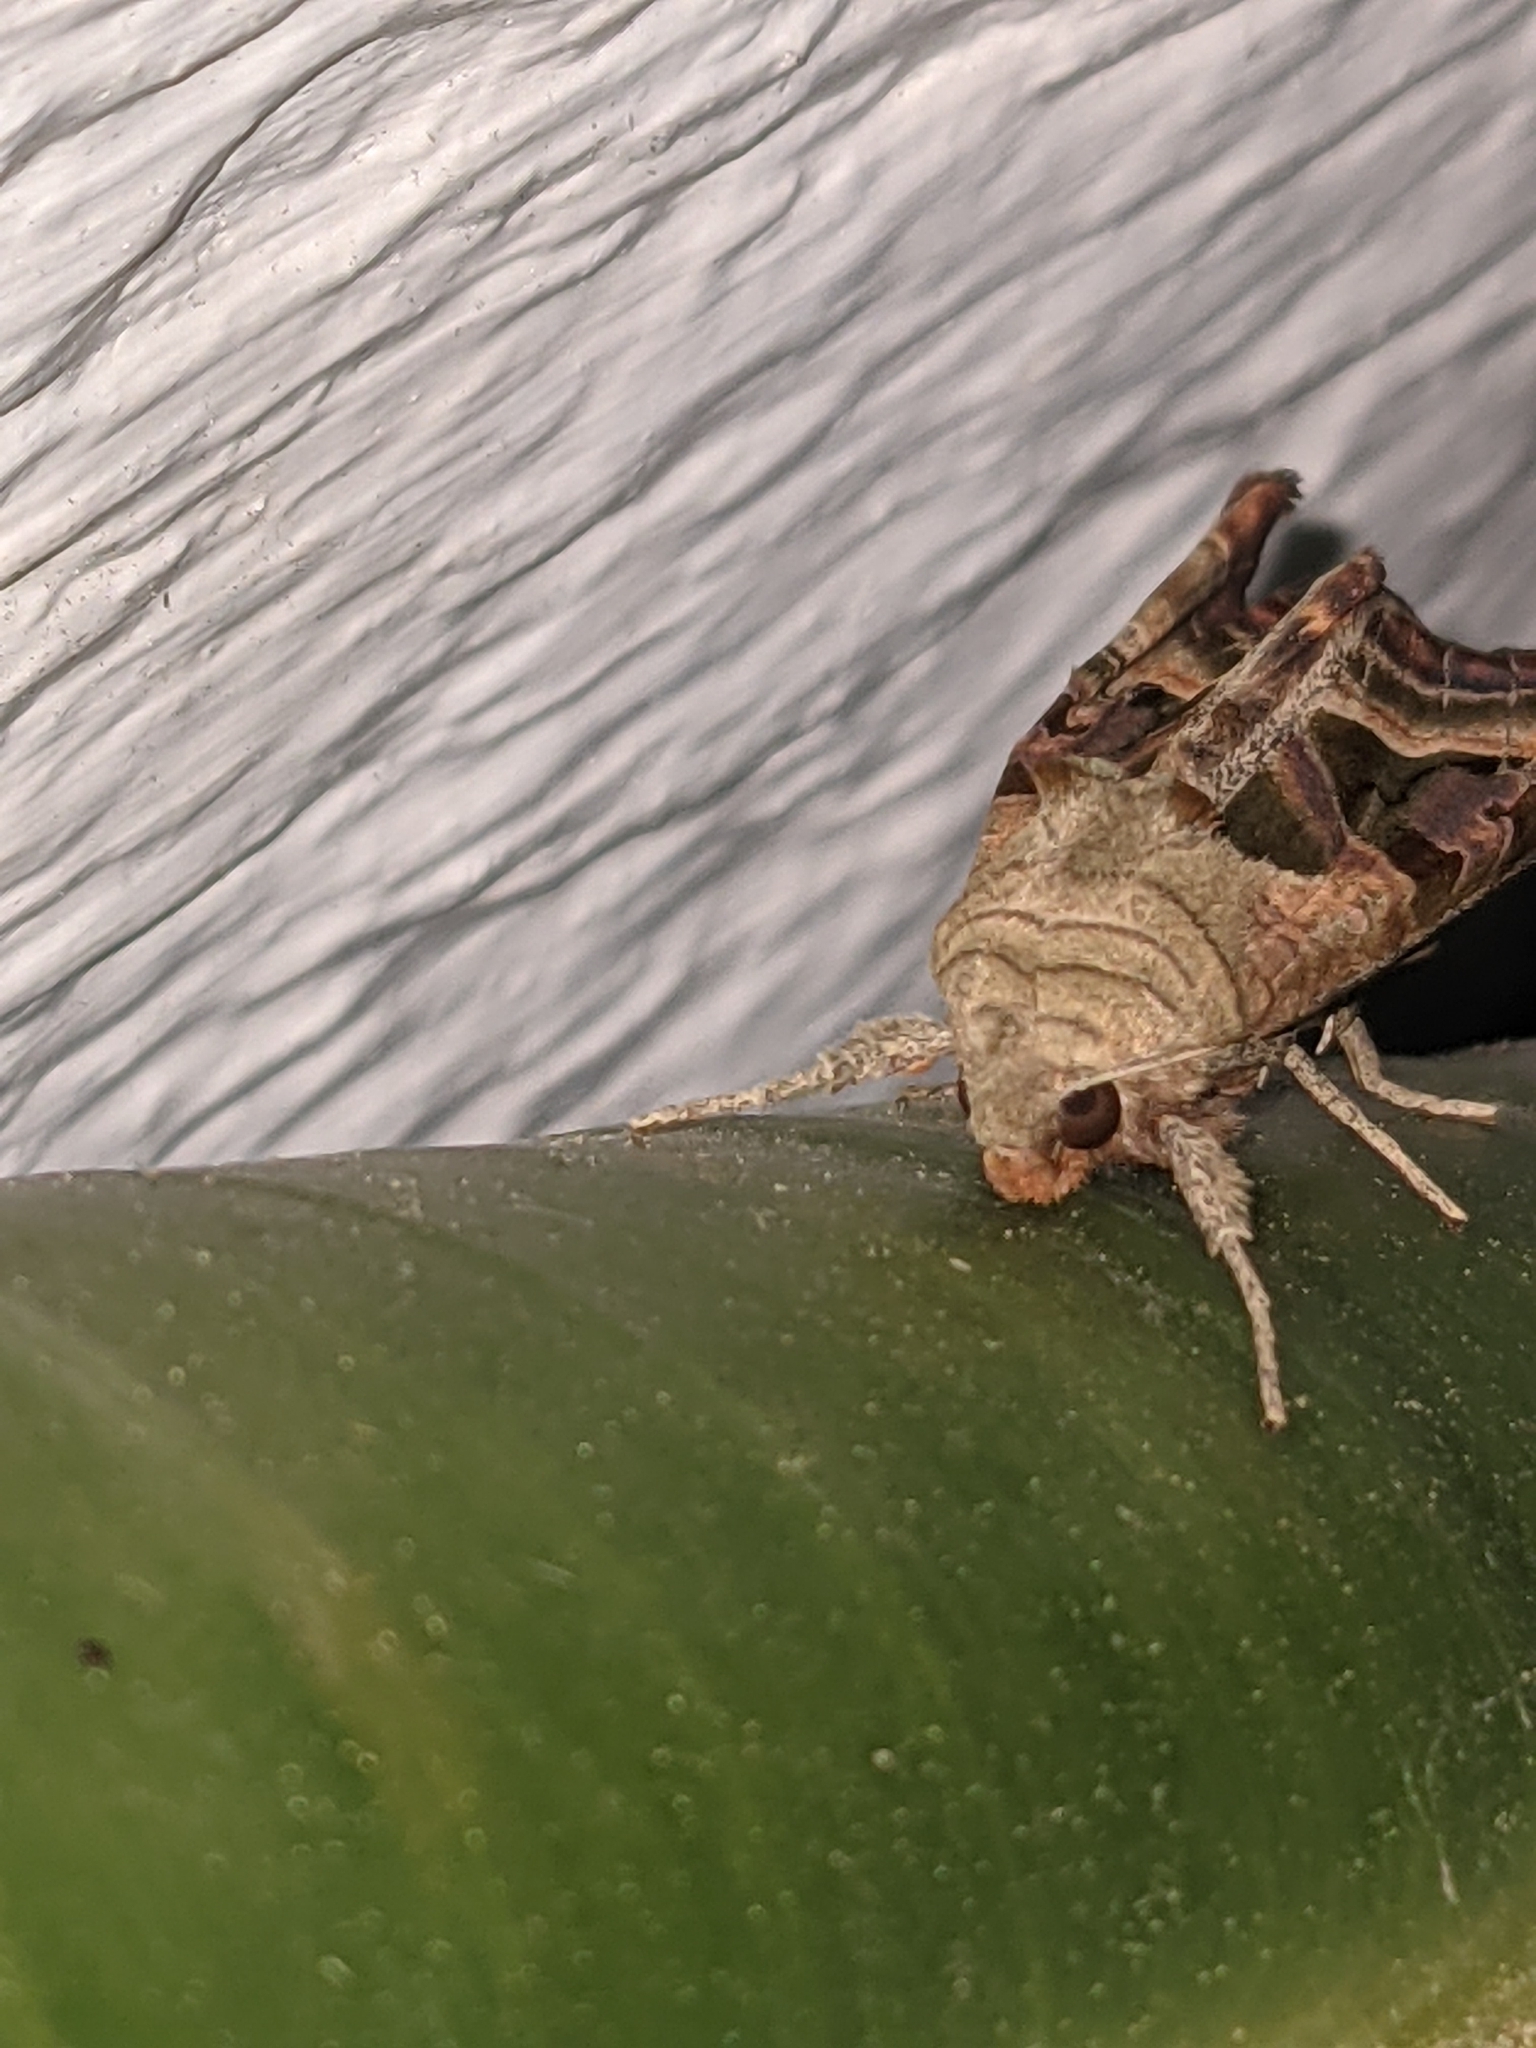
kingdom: Animalia
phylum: Arthropoda
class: Insecta
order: Lepidoptera
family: Noctuidae
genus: Phlogophora
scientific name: Phlogophora iris
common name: Olive angle shades
